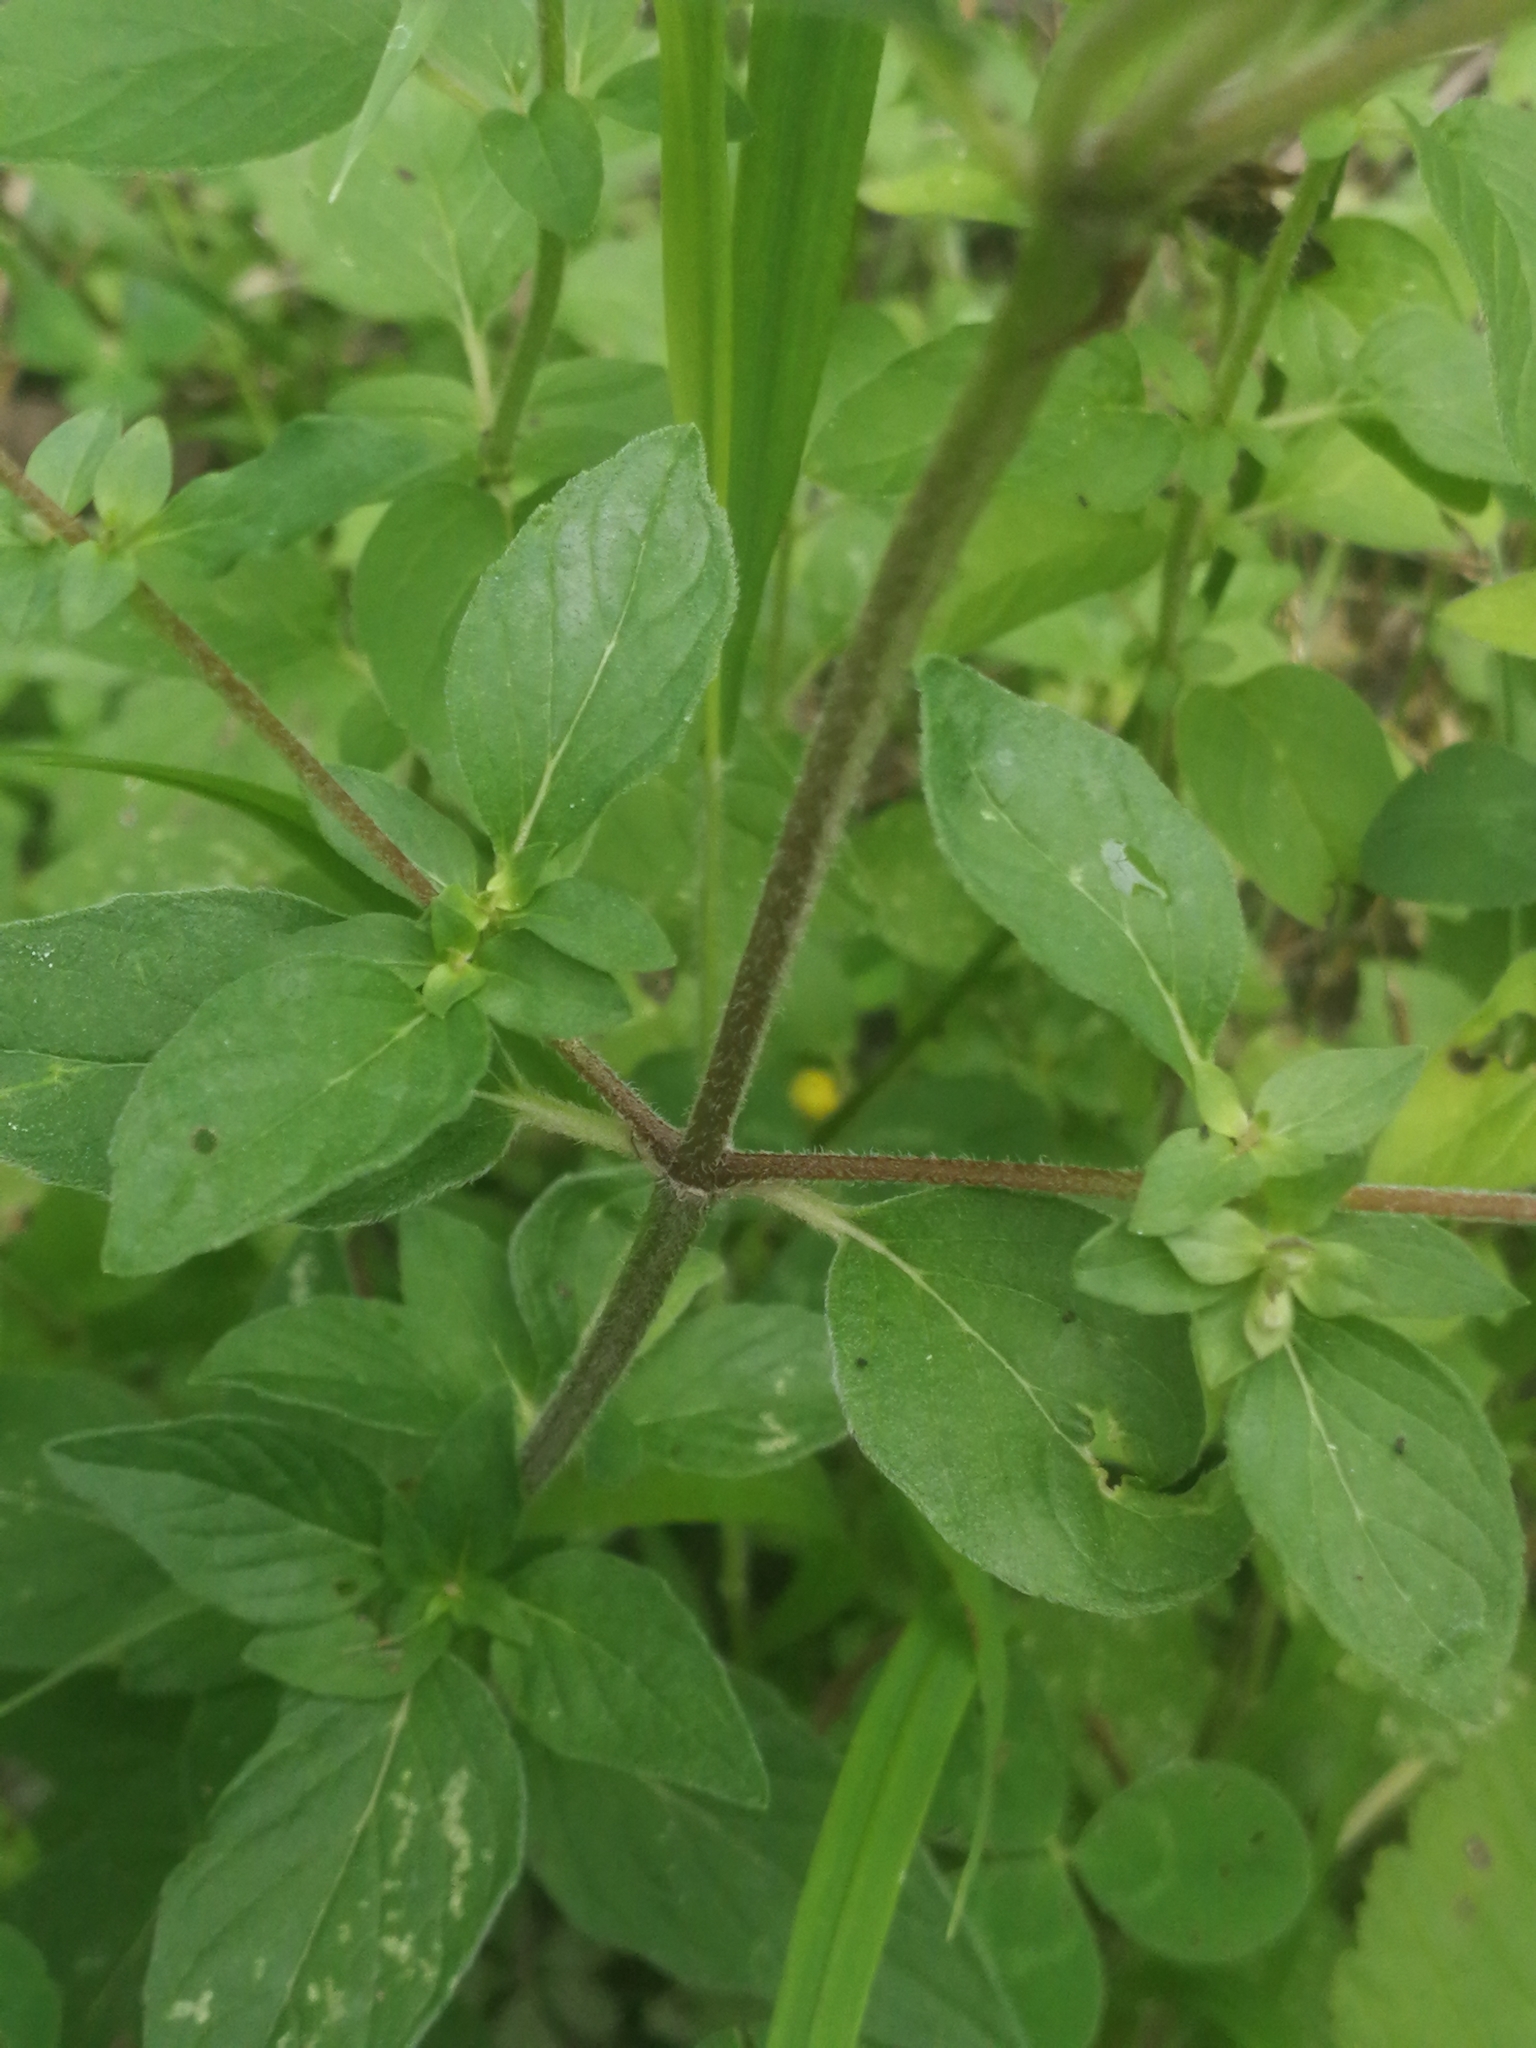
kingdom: Plantae
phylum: Tracheophyta
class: Magnoliopsida
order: Lamiales
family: Lamiaceae
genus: Origanum
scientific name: Origanum vulgare
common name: Wild marjoram
